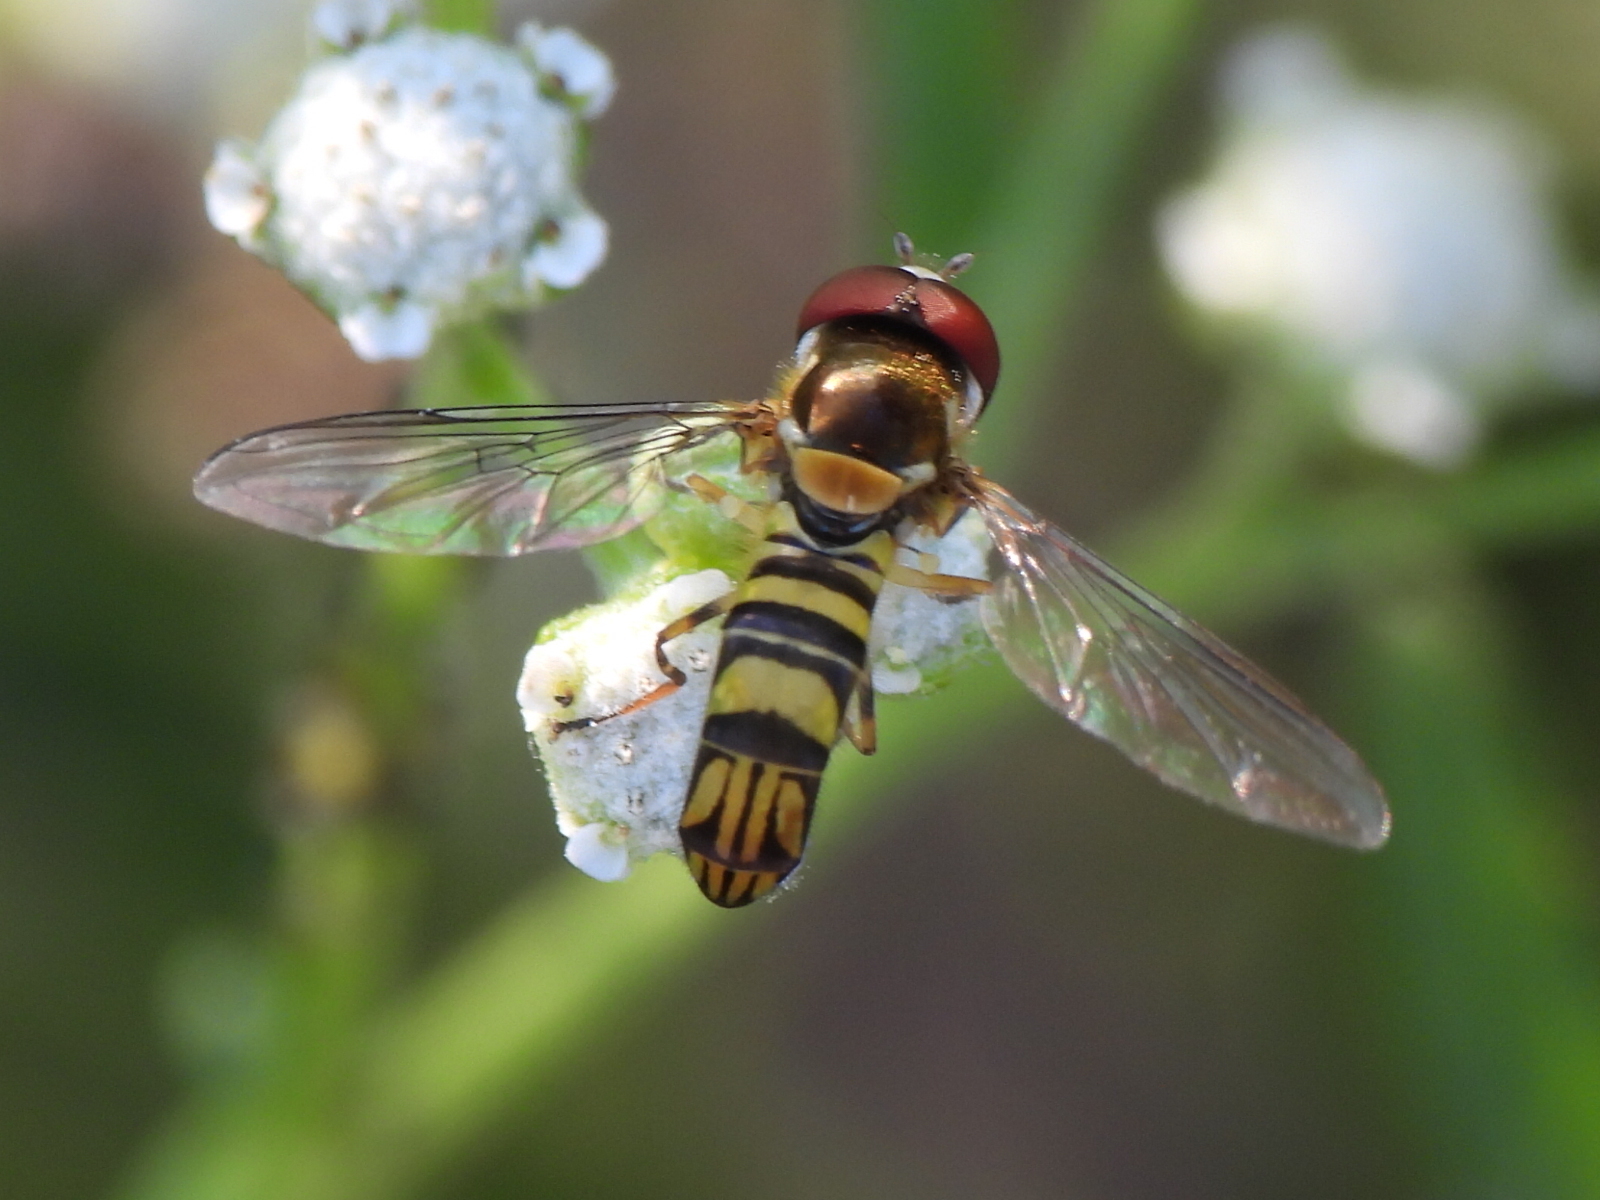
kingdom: Animalia
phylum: Arthropoda
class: Insecta
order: Diptera
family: Syrphidae
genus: Allograpta
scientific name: Allograpta obliqua
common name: Common oblique syrphid
